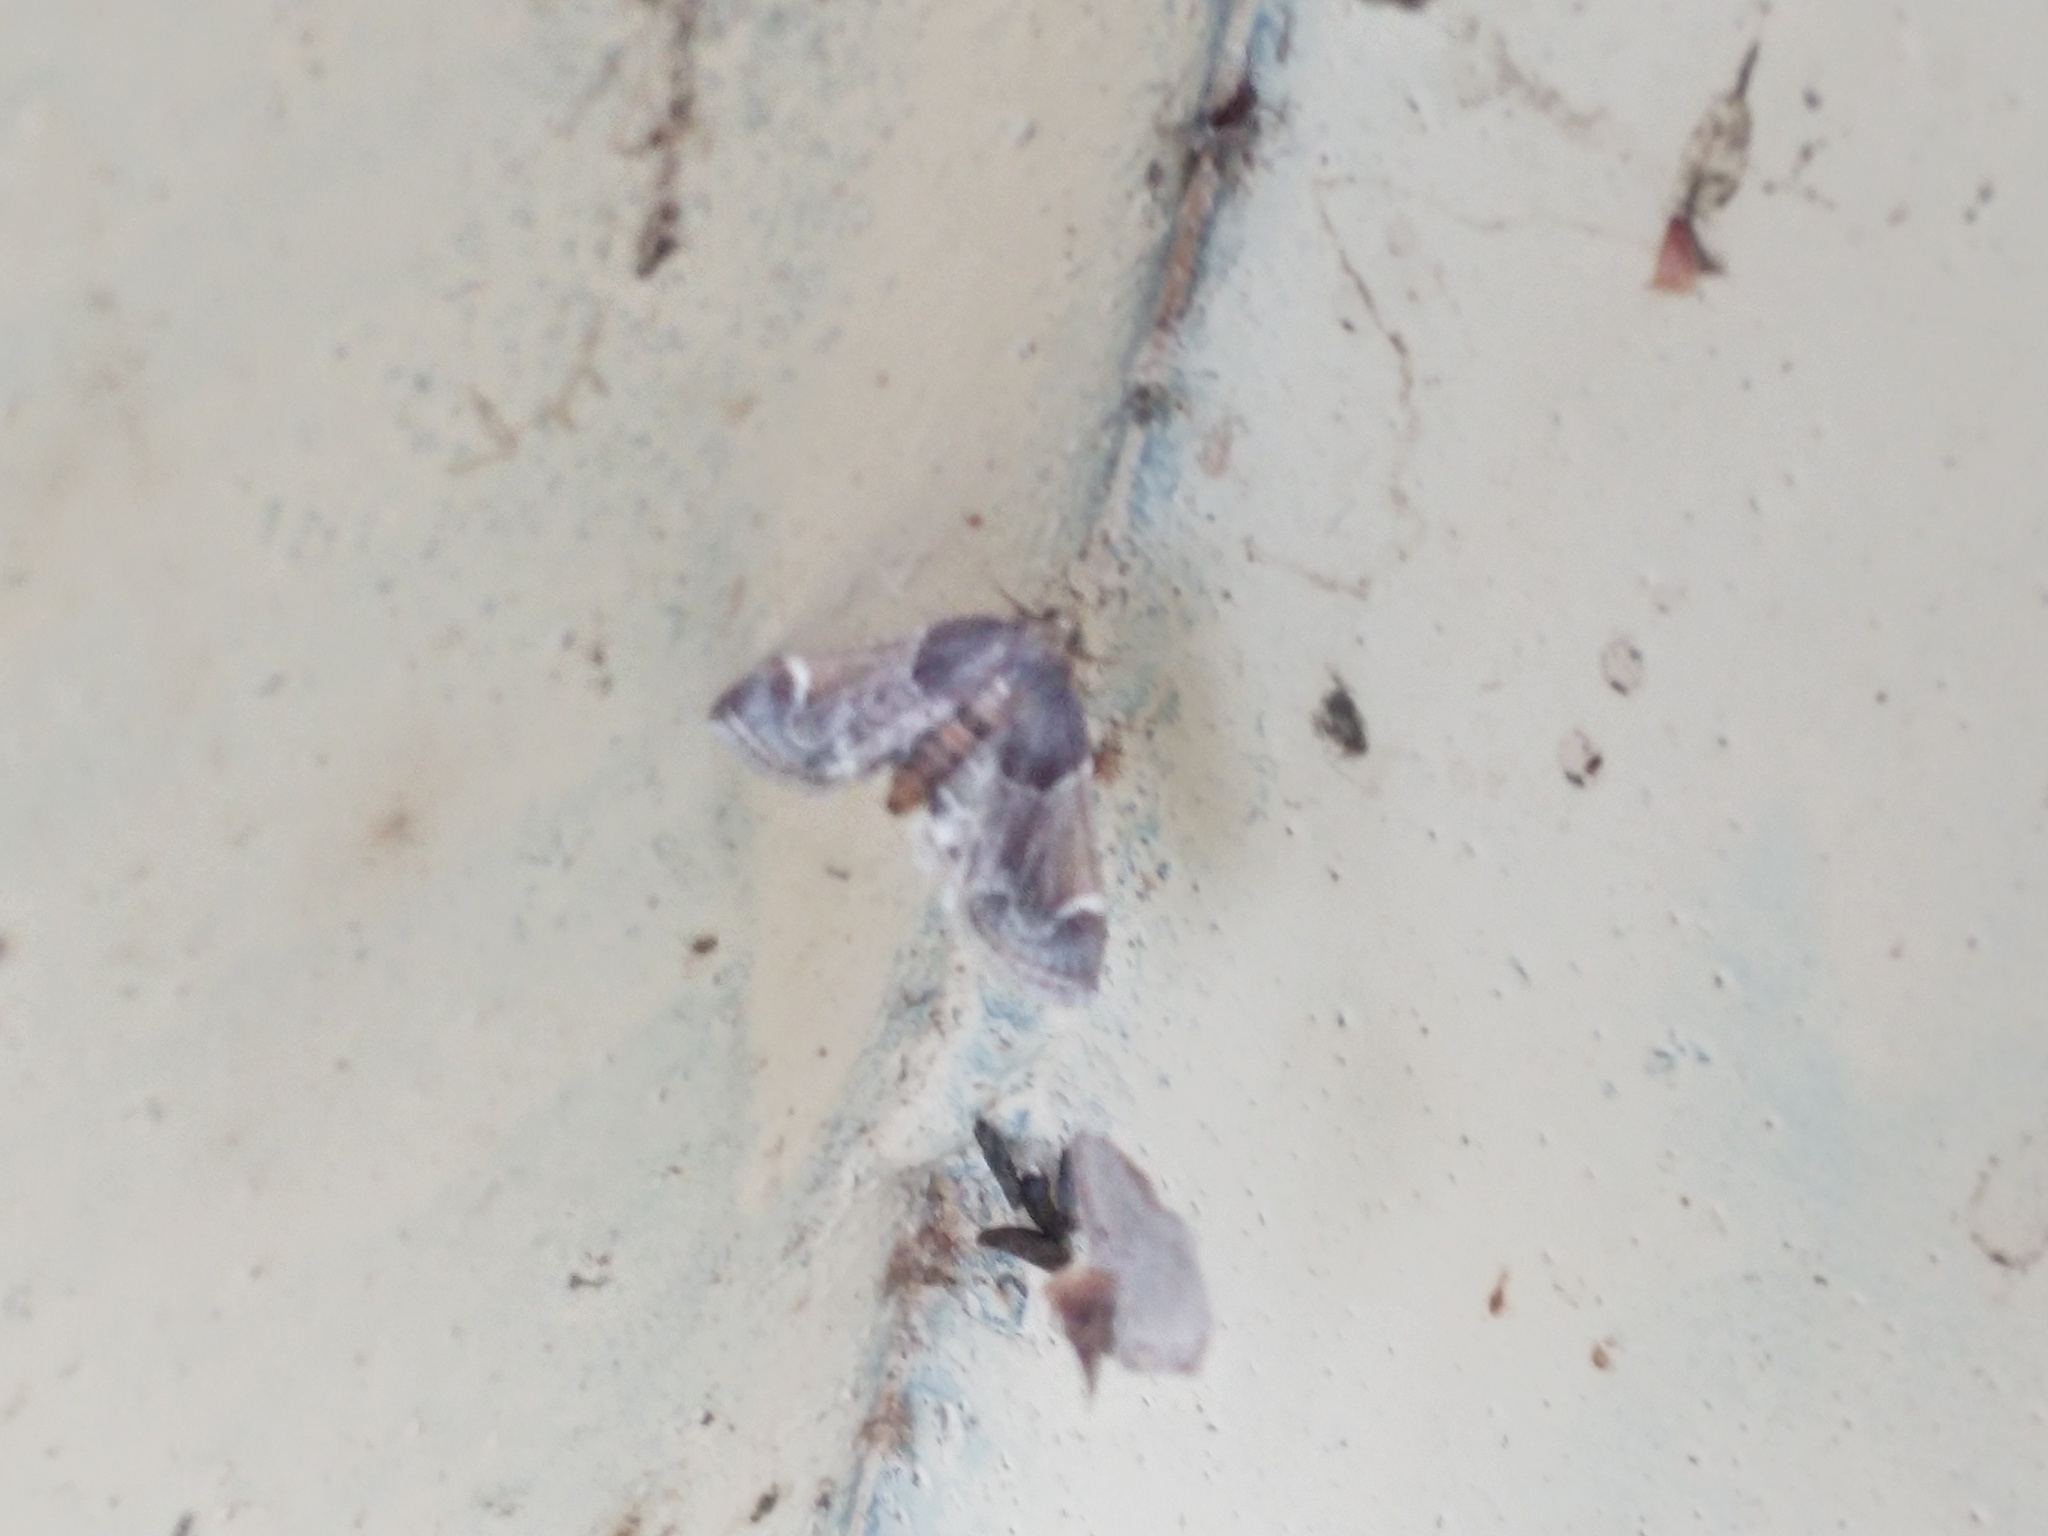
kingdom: Animalia
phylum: Arthropoda
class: Insecta
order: Lepidoptera
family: Pyralidae
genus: Pyralis
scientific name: Pyralis farinalis
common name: Meal moth
